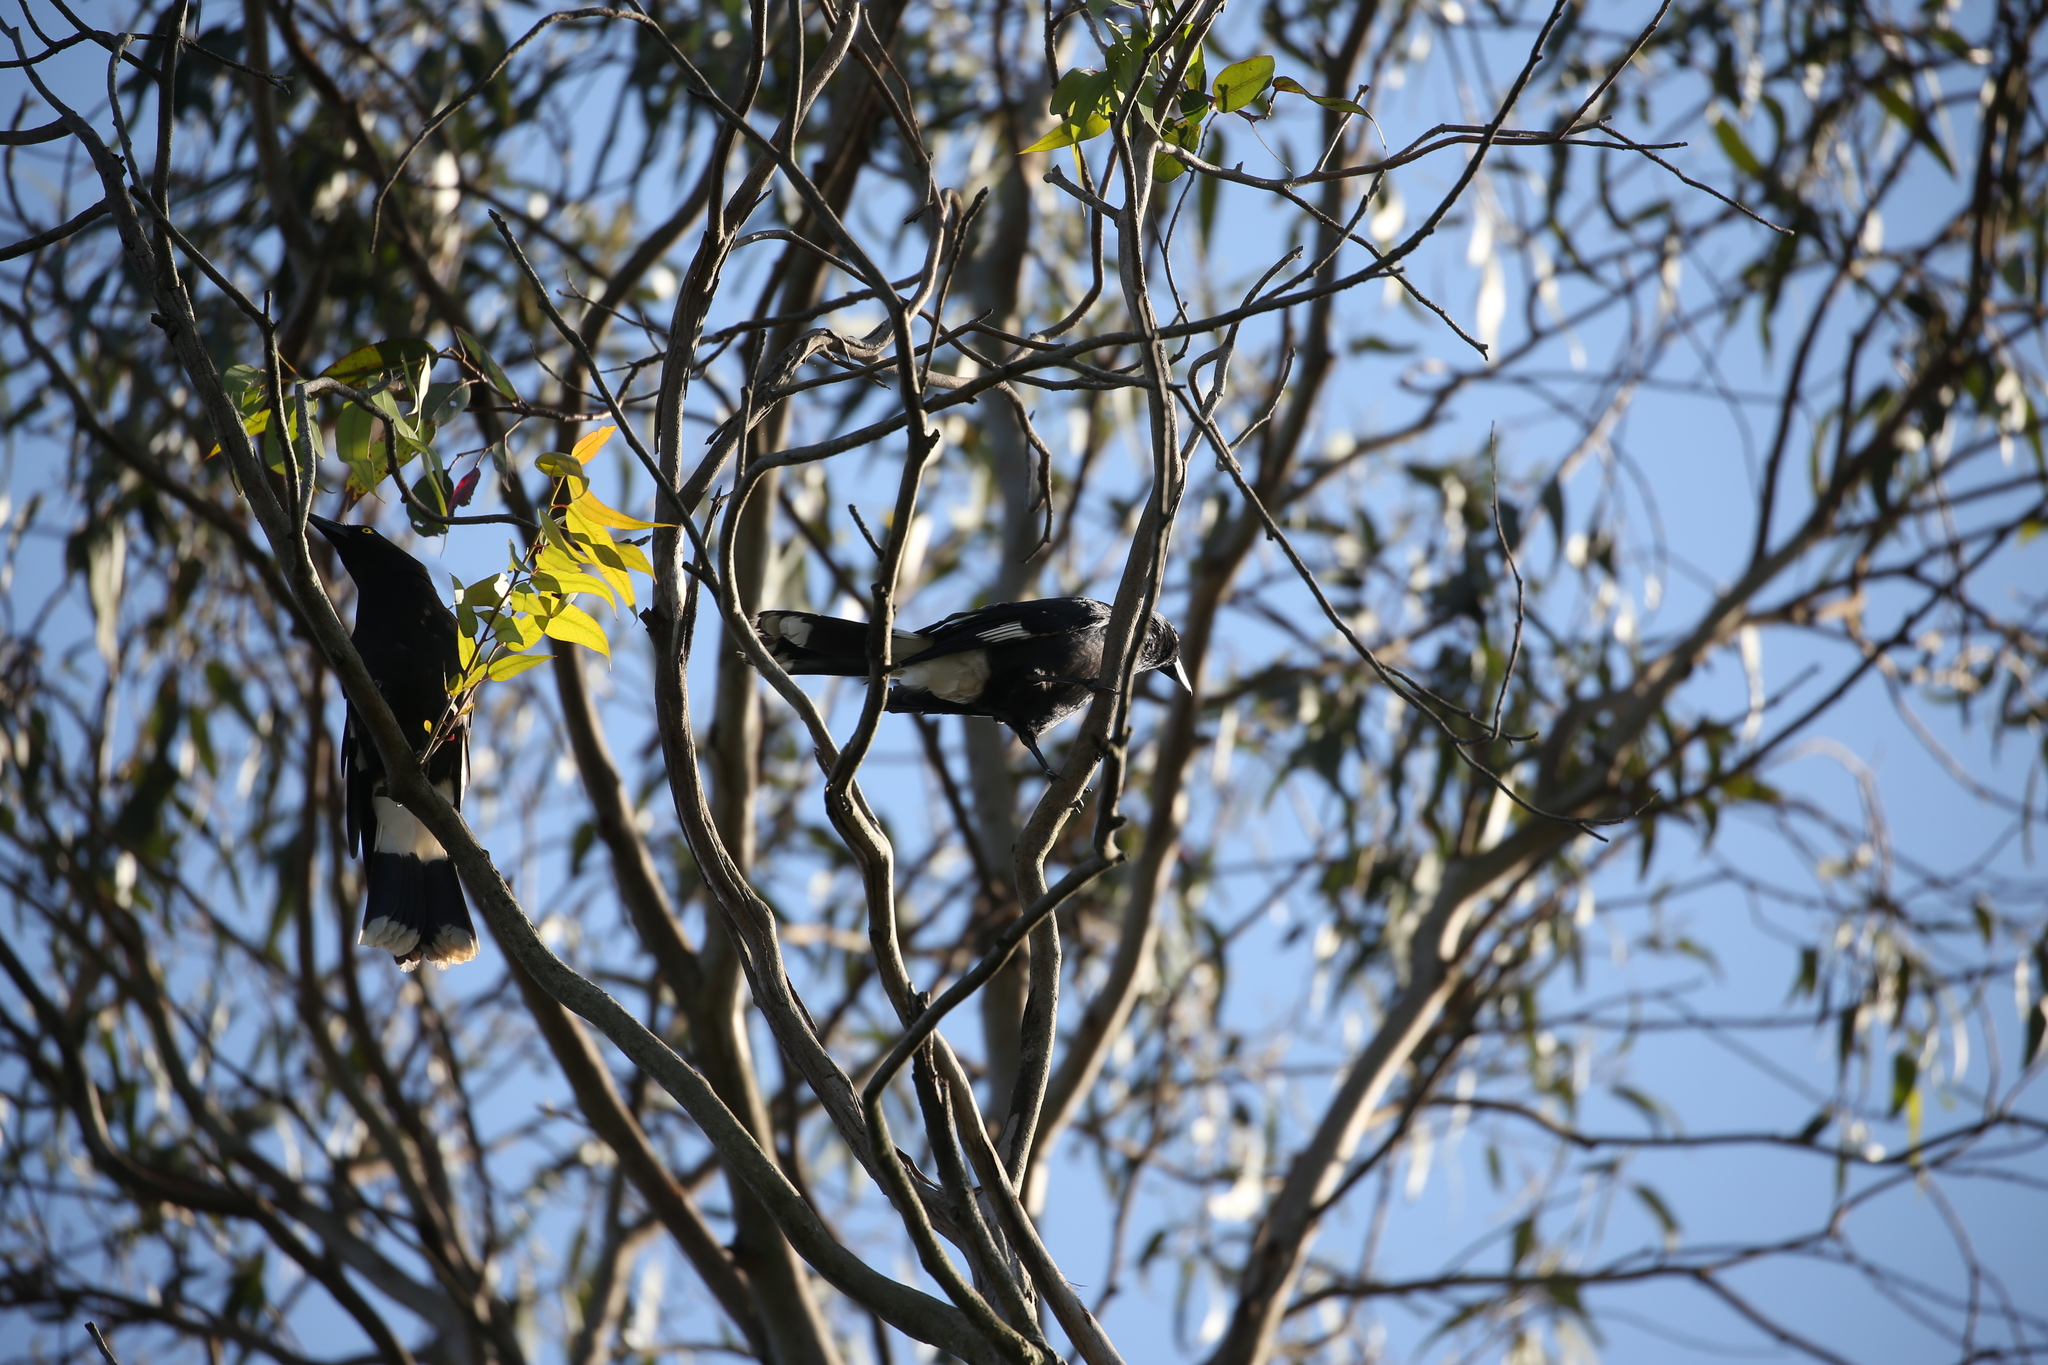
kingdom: Animalia
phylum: Chordata
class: Aves
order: Passeriformes
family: Cracticidae
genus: Strepera
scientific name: Strepera graculina
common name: Pied currawong
